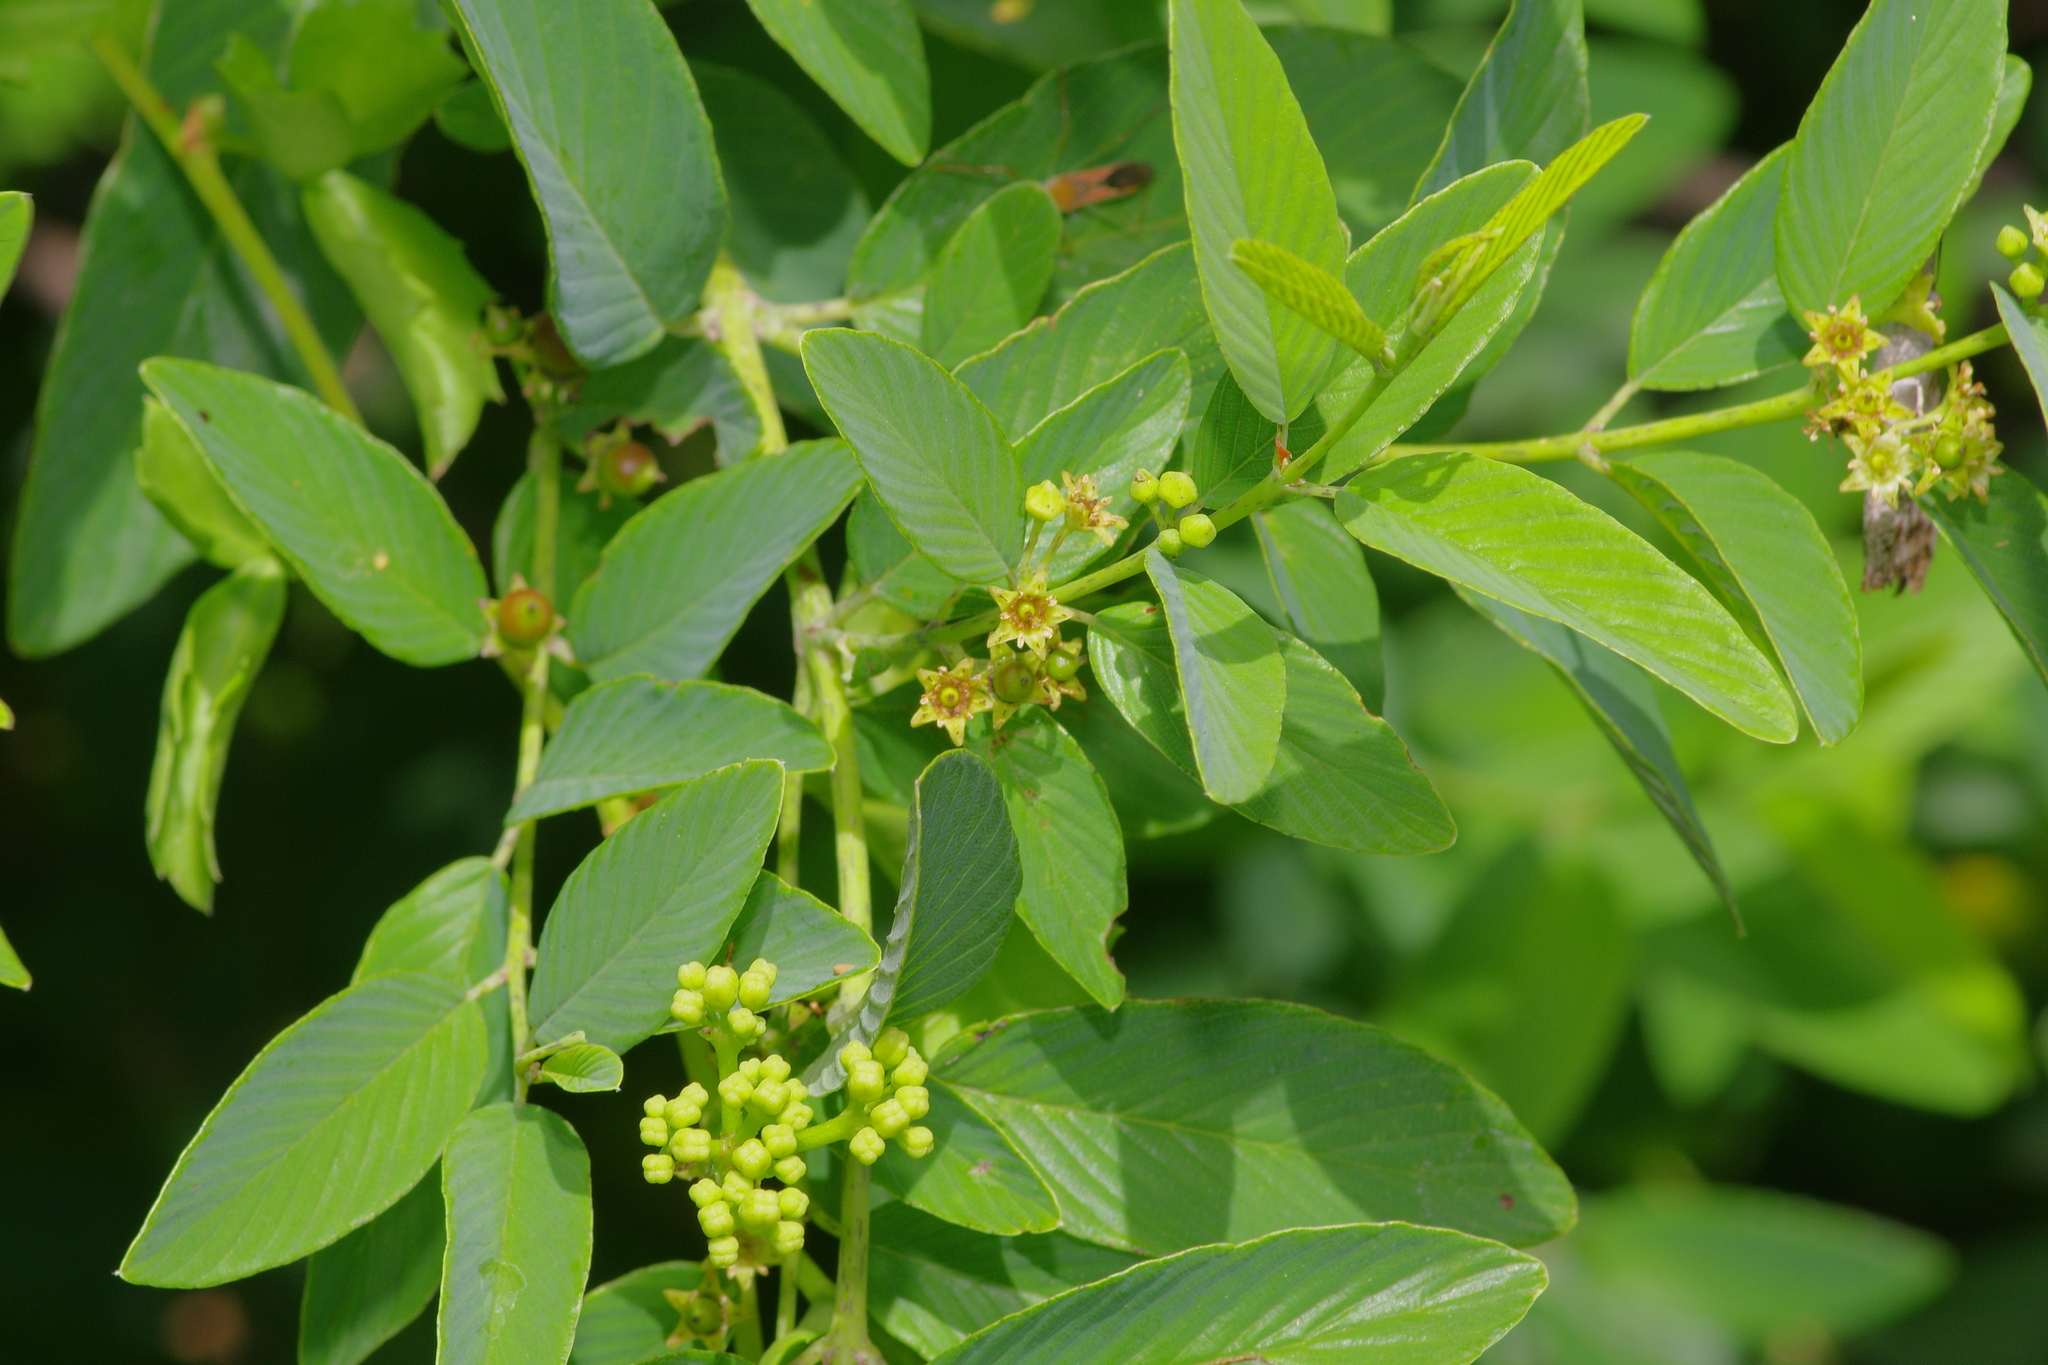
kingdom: Plantae
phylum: Tracheophyta
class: Magnoliopsida
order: Rosales
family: Rhamnaceae
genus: Karwinskia
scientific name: Karwinskia humboldtiana
